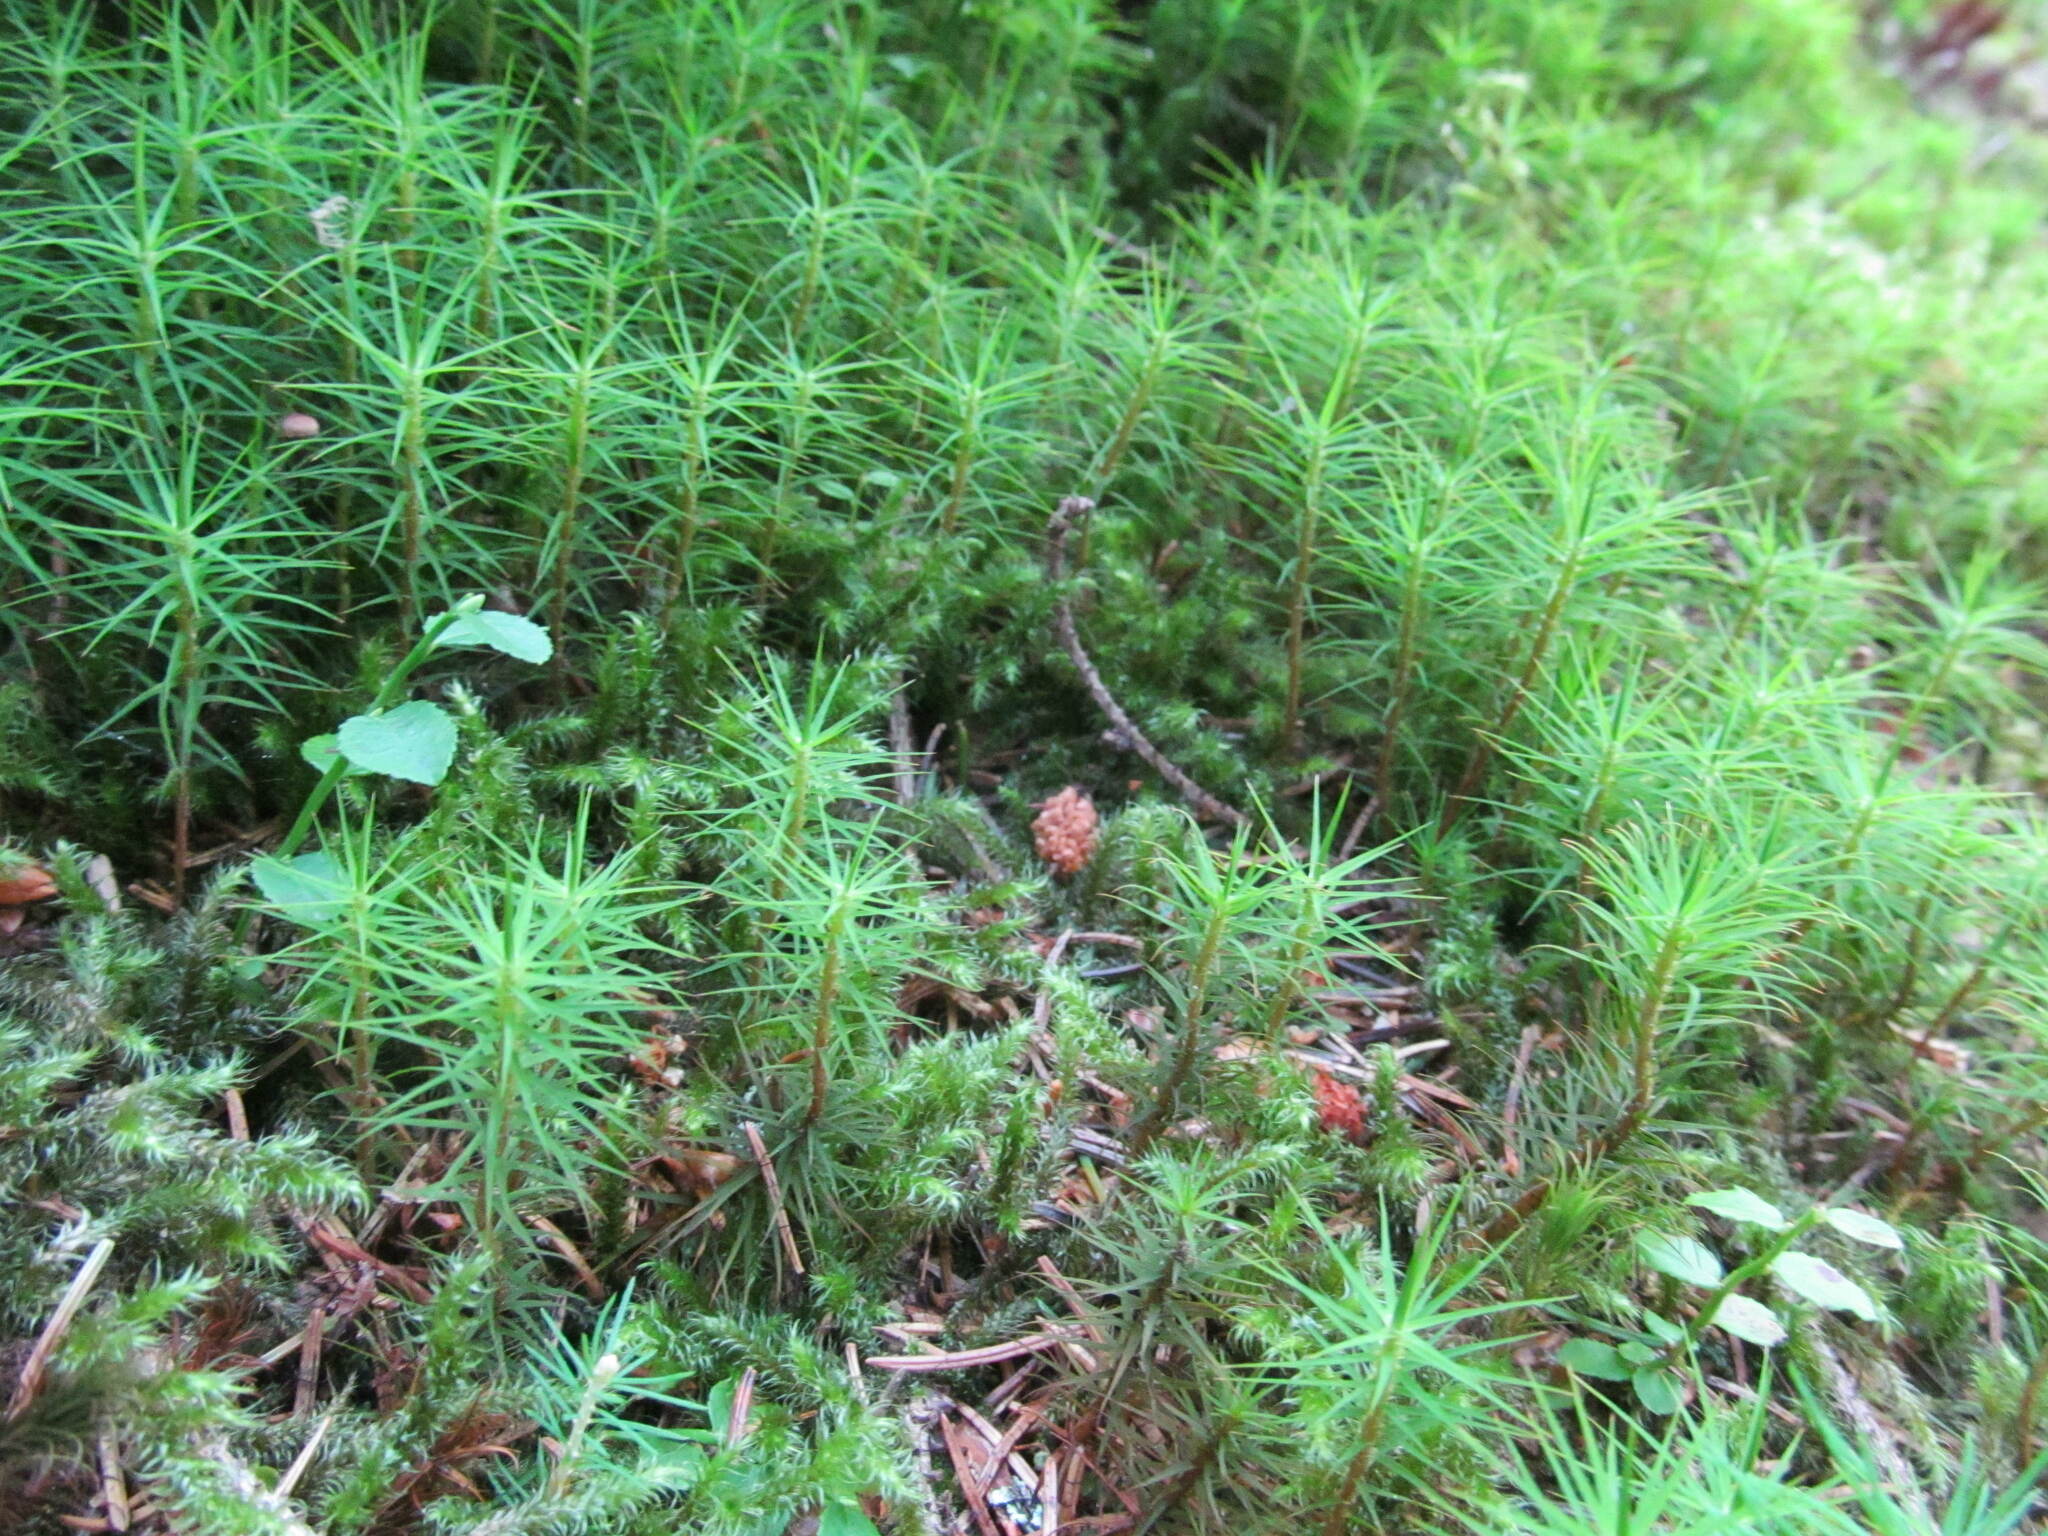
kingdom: Plantae
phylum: Bryophyta
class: Polytrichopsida
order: Polytrichales
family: Polytrichaceae
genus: Polytrichum
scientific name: Polytrichum commune
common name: Common haircap
